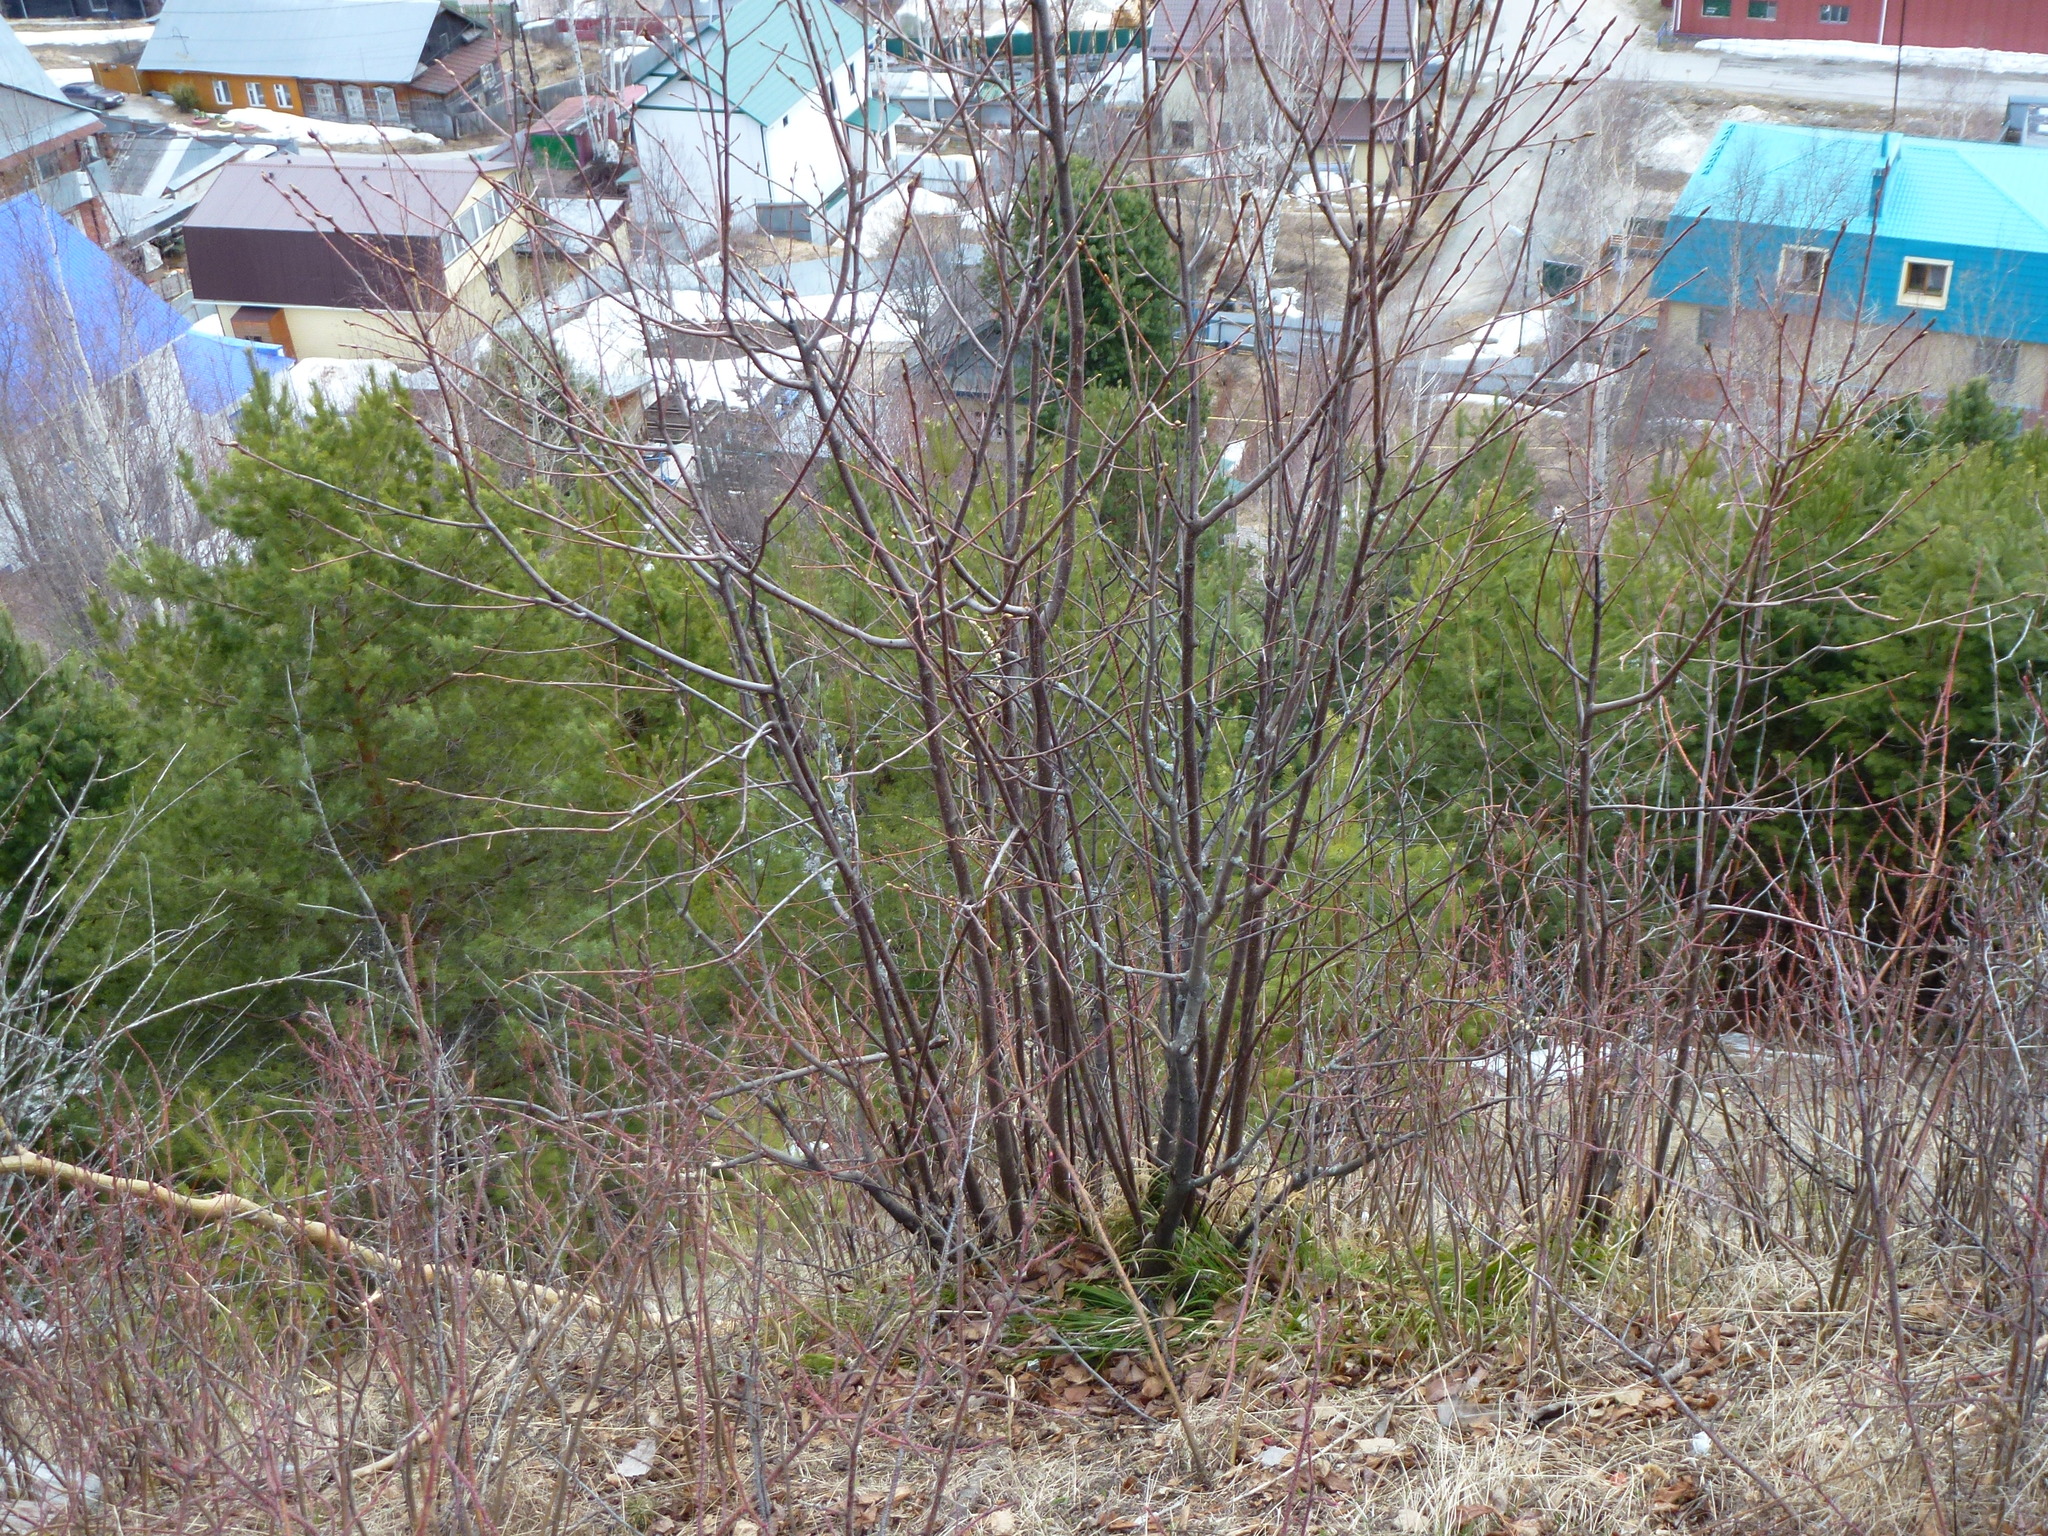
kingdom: Plantae
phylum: Tracheophyta
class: Magnoliopsida
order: Rosales
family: Rosaceae
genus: Prunus
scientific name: Prunus padus
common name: Bird cherry
